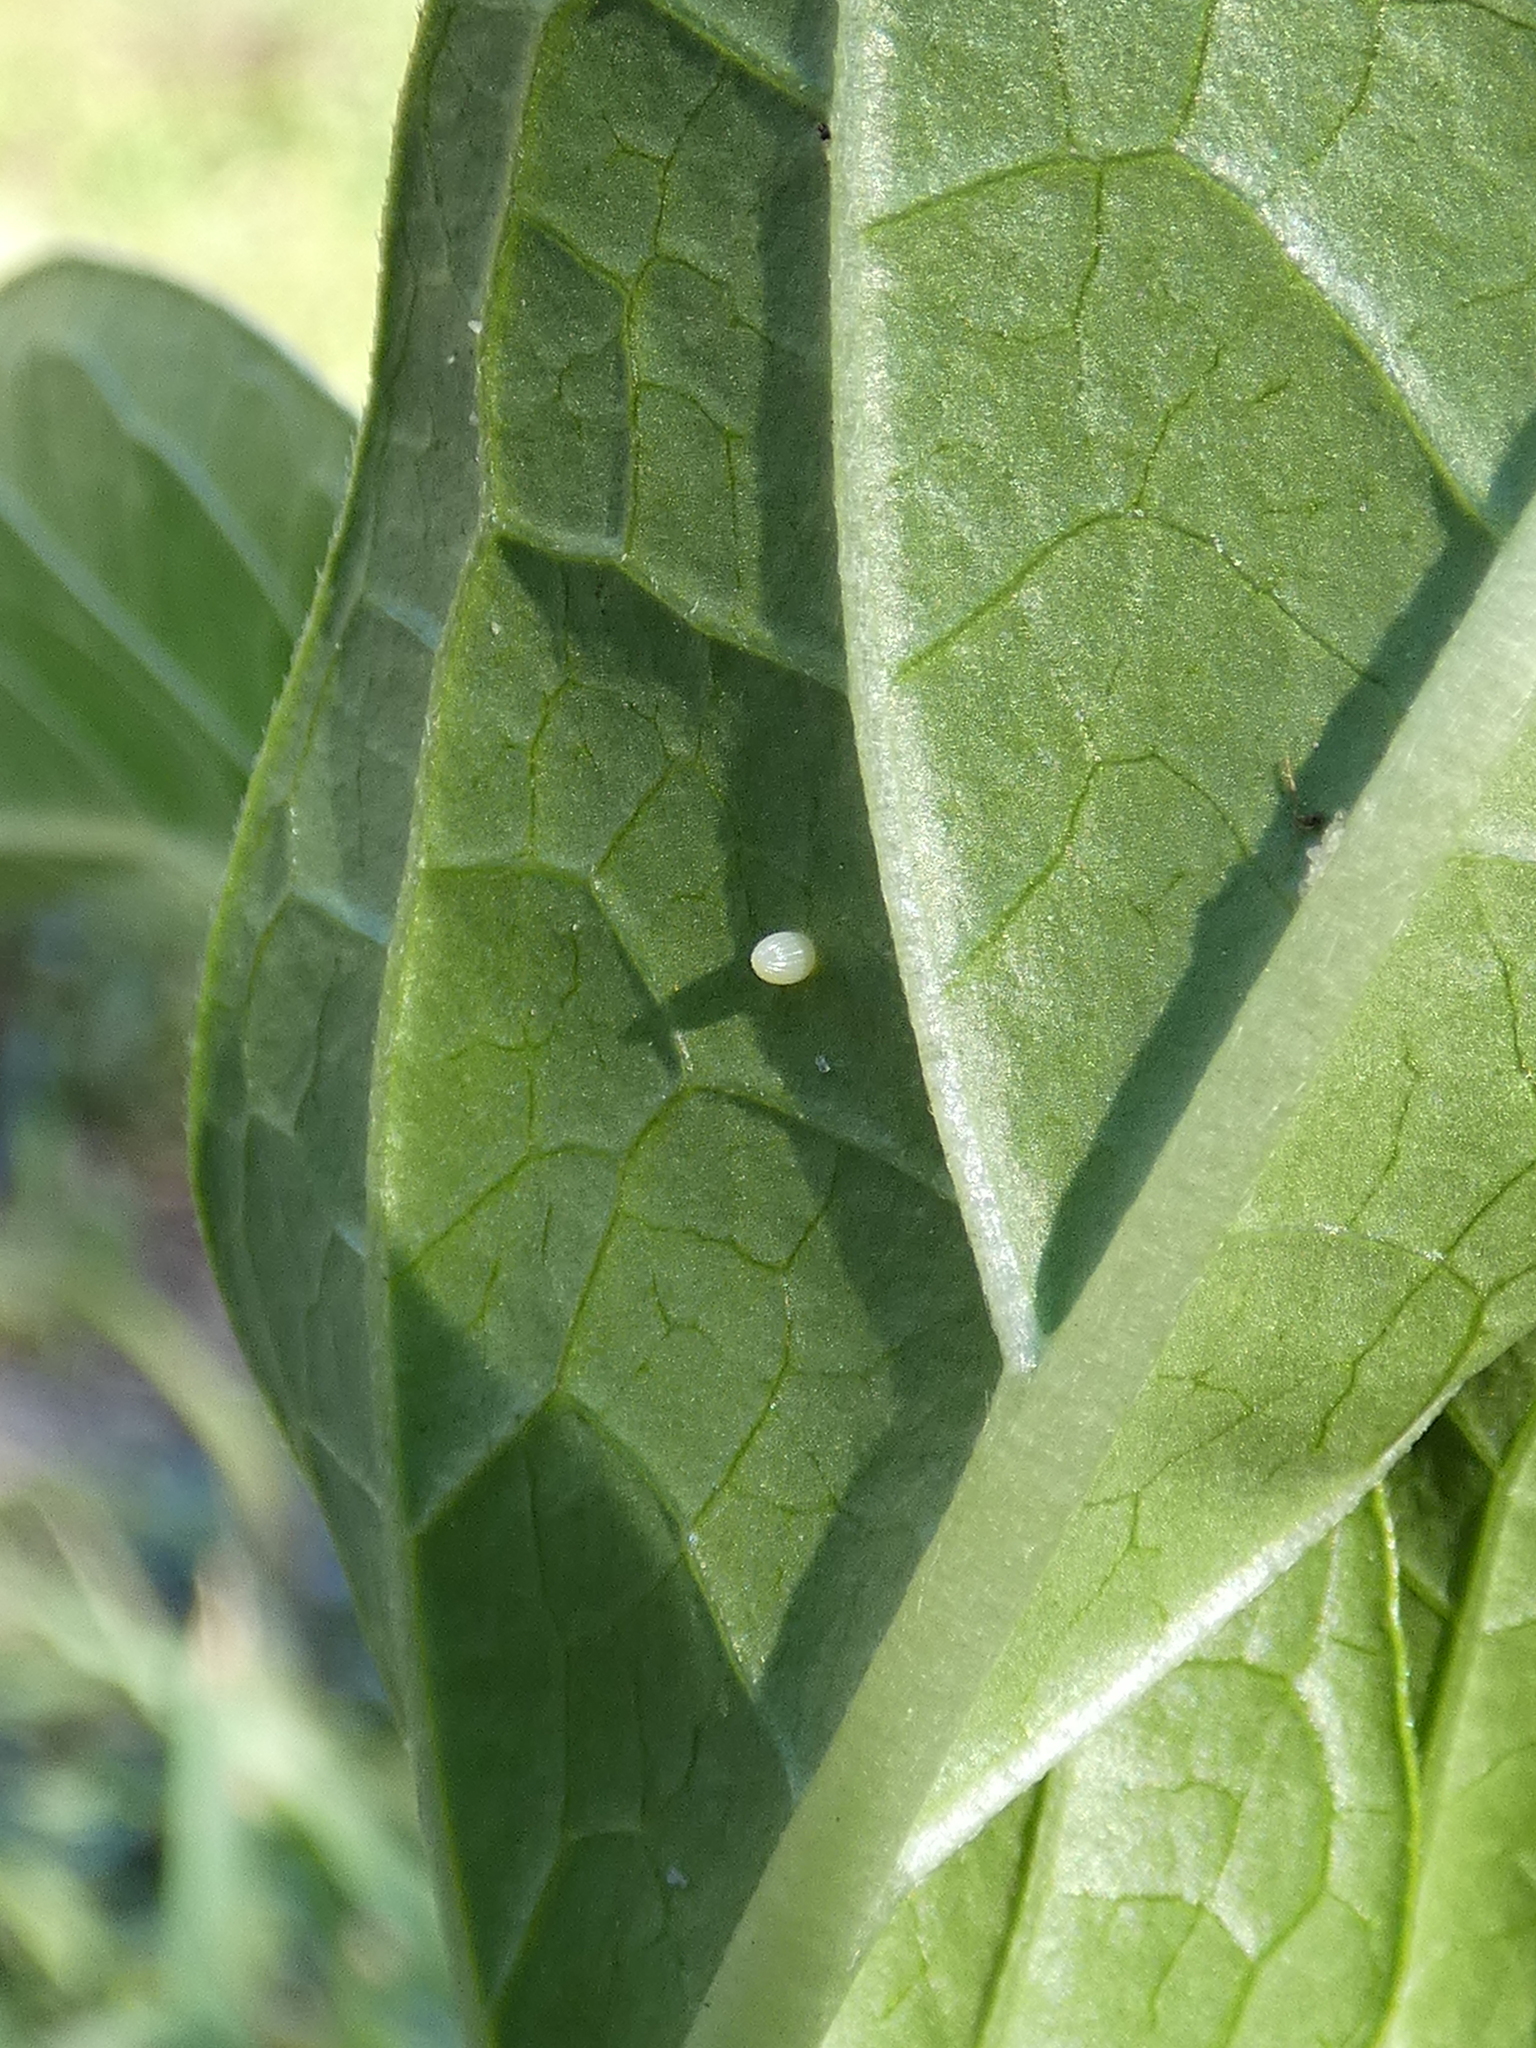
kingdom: Animalia
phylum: Arthropoda
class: Insecta
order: Lepidoptera
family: Nymphalidae
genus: Danaus
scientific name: Danaus plexippus
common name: Monarch
